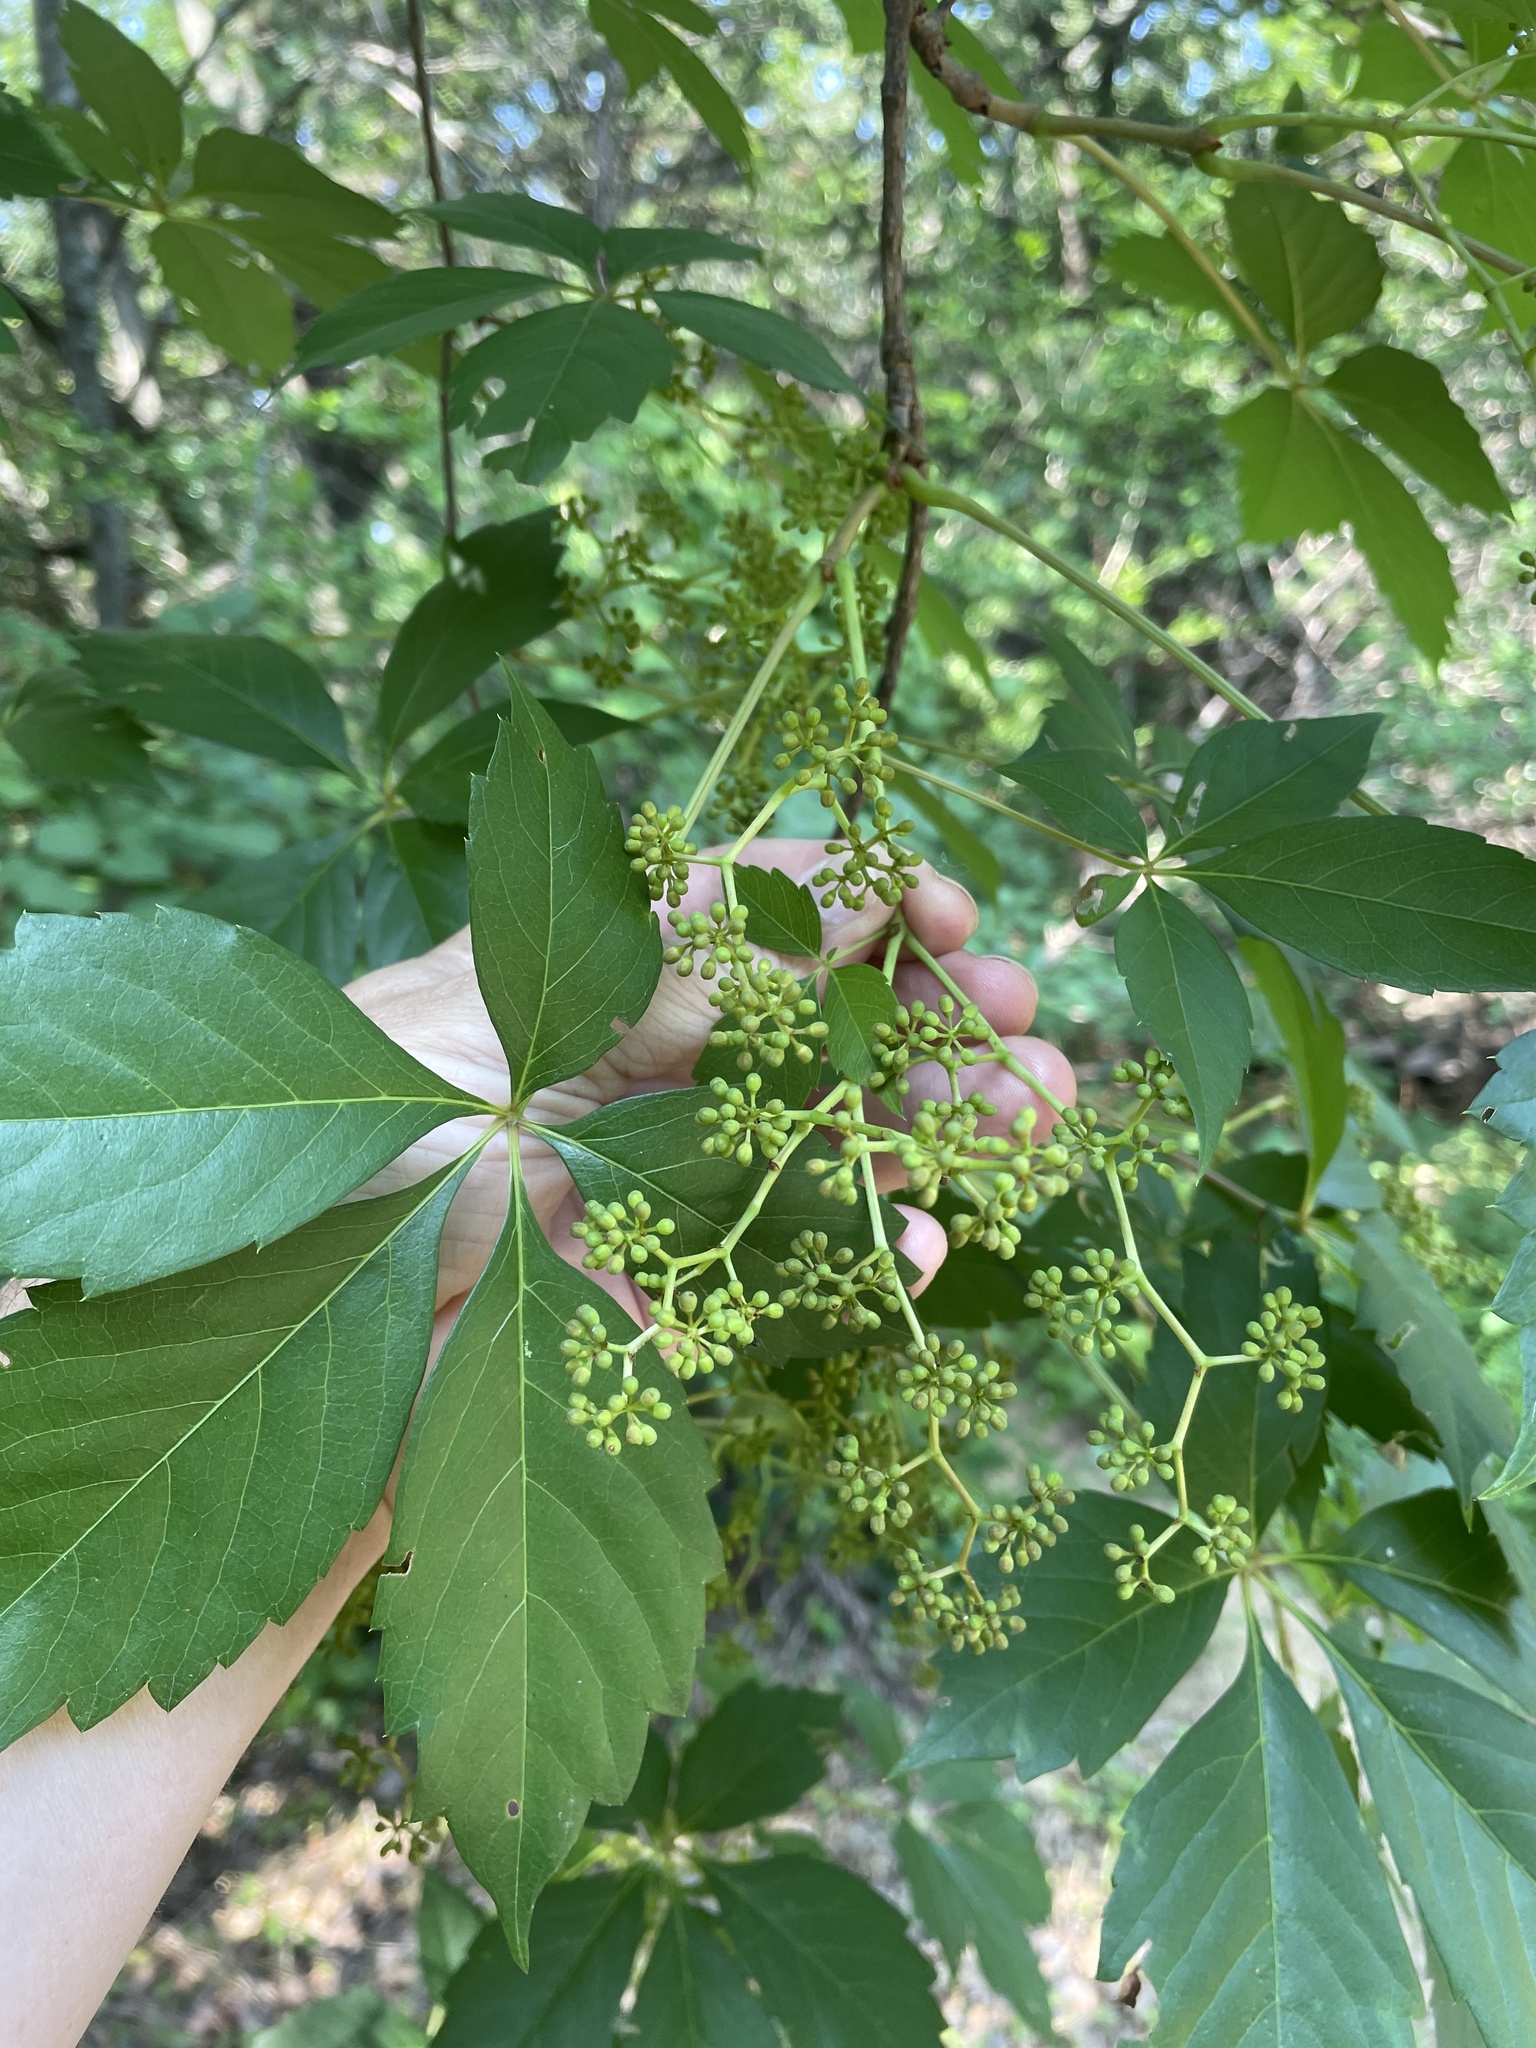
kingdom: Plantae
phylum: Tracheophyta
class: Magnoliopsida
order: Vitales
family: Vitaceae
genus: Parthenocissus
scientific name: Parthenocissus quinquefolia
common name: Virginia-creeper
